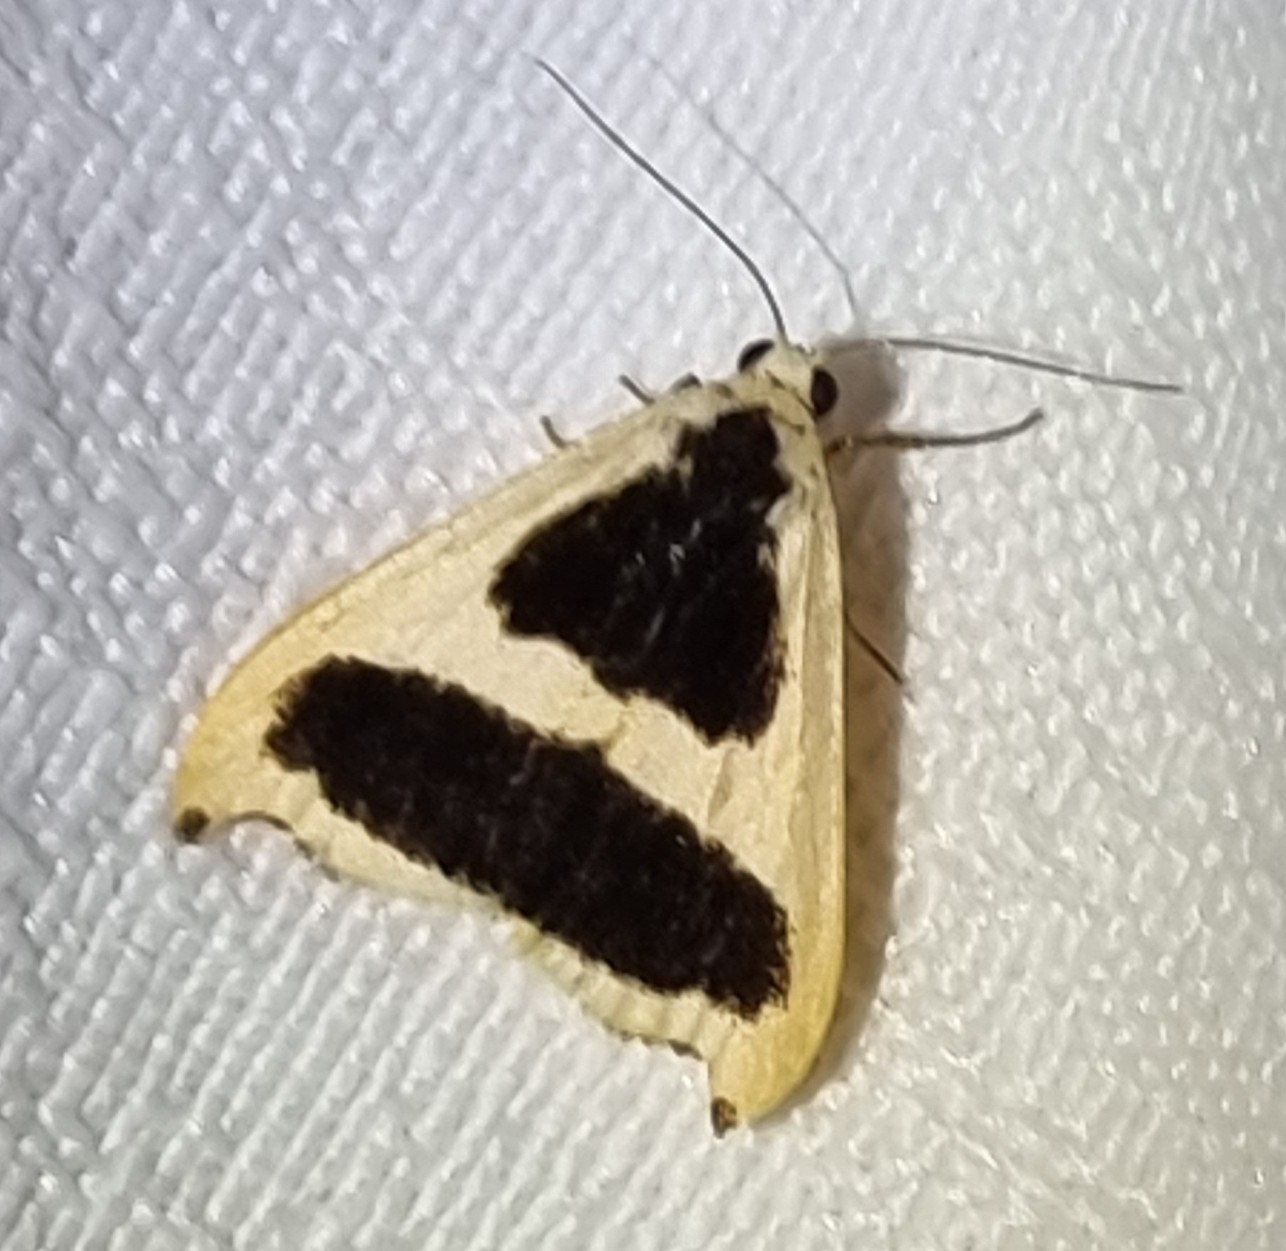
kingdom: Animalia
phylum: Arthropoda
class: Insecta
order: Lepidoptera
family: Erebidae
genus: Termessa
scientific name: Termessa conographa
